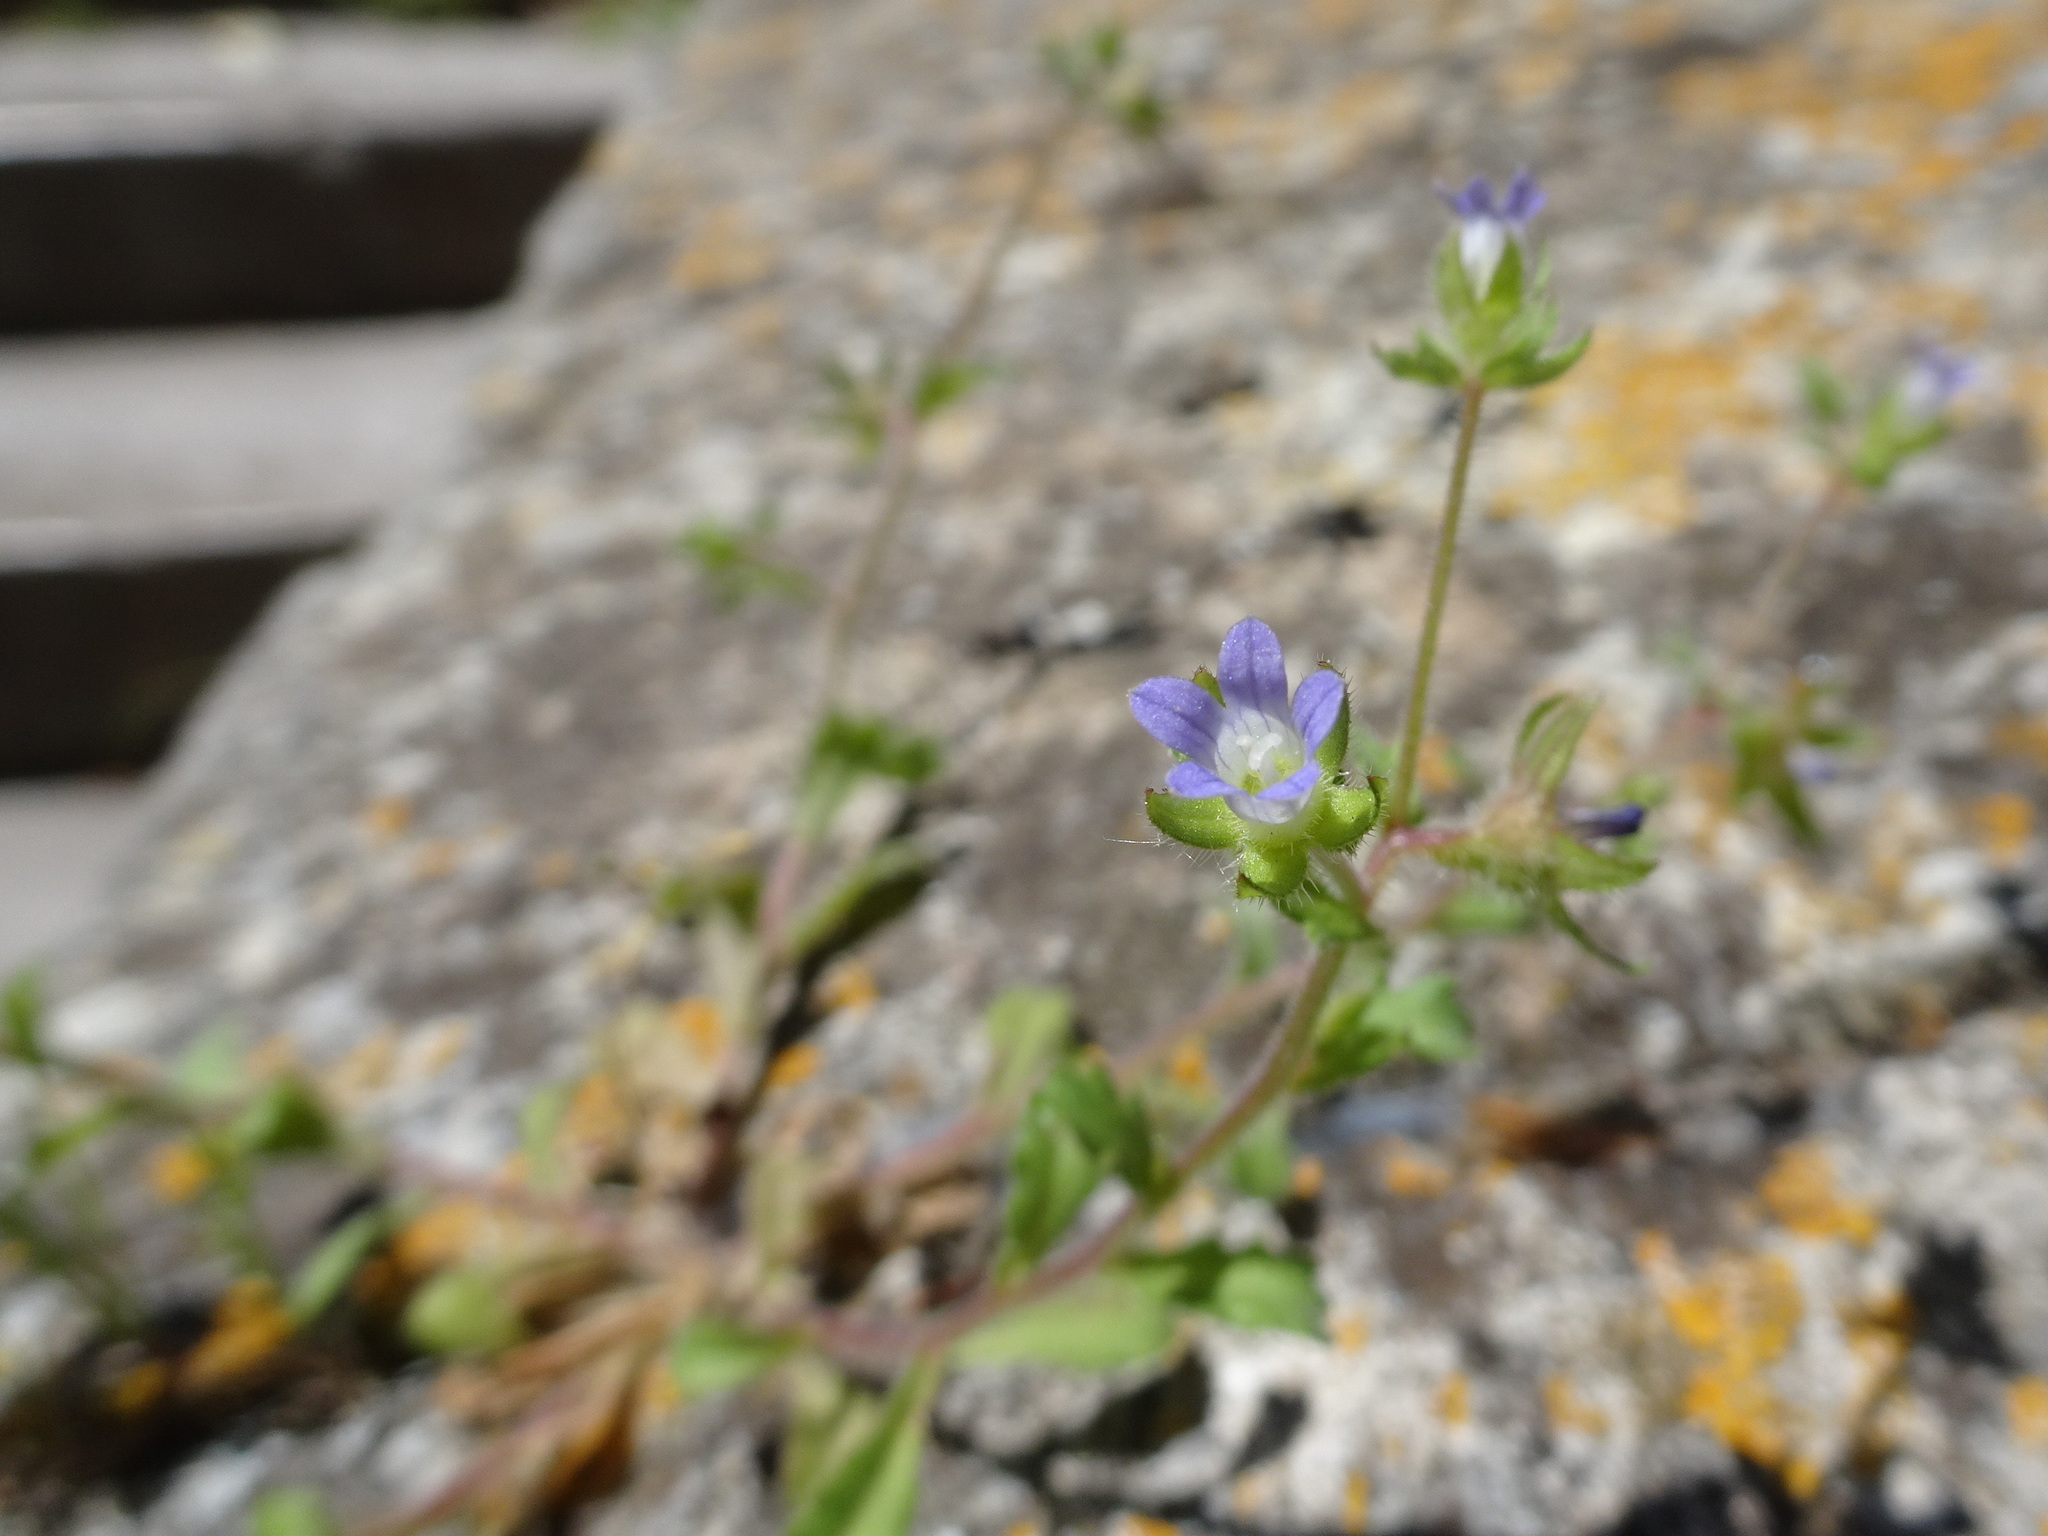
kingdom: Plantae
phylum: Tracheophyta
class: Magnoliopsida
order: Asterales
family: Campanulaceae
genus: Campanula
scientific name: Campanula erinus
